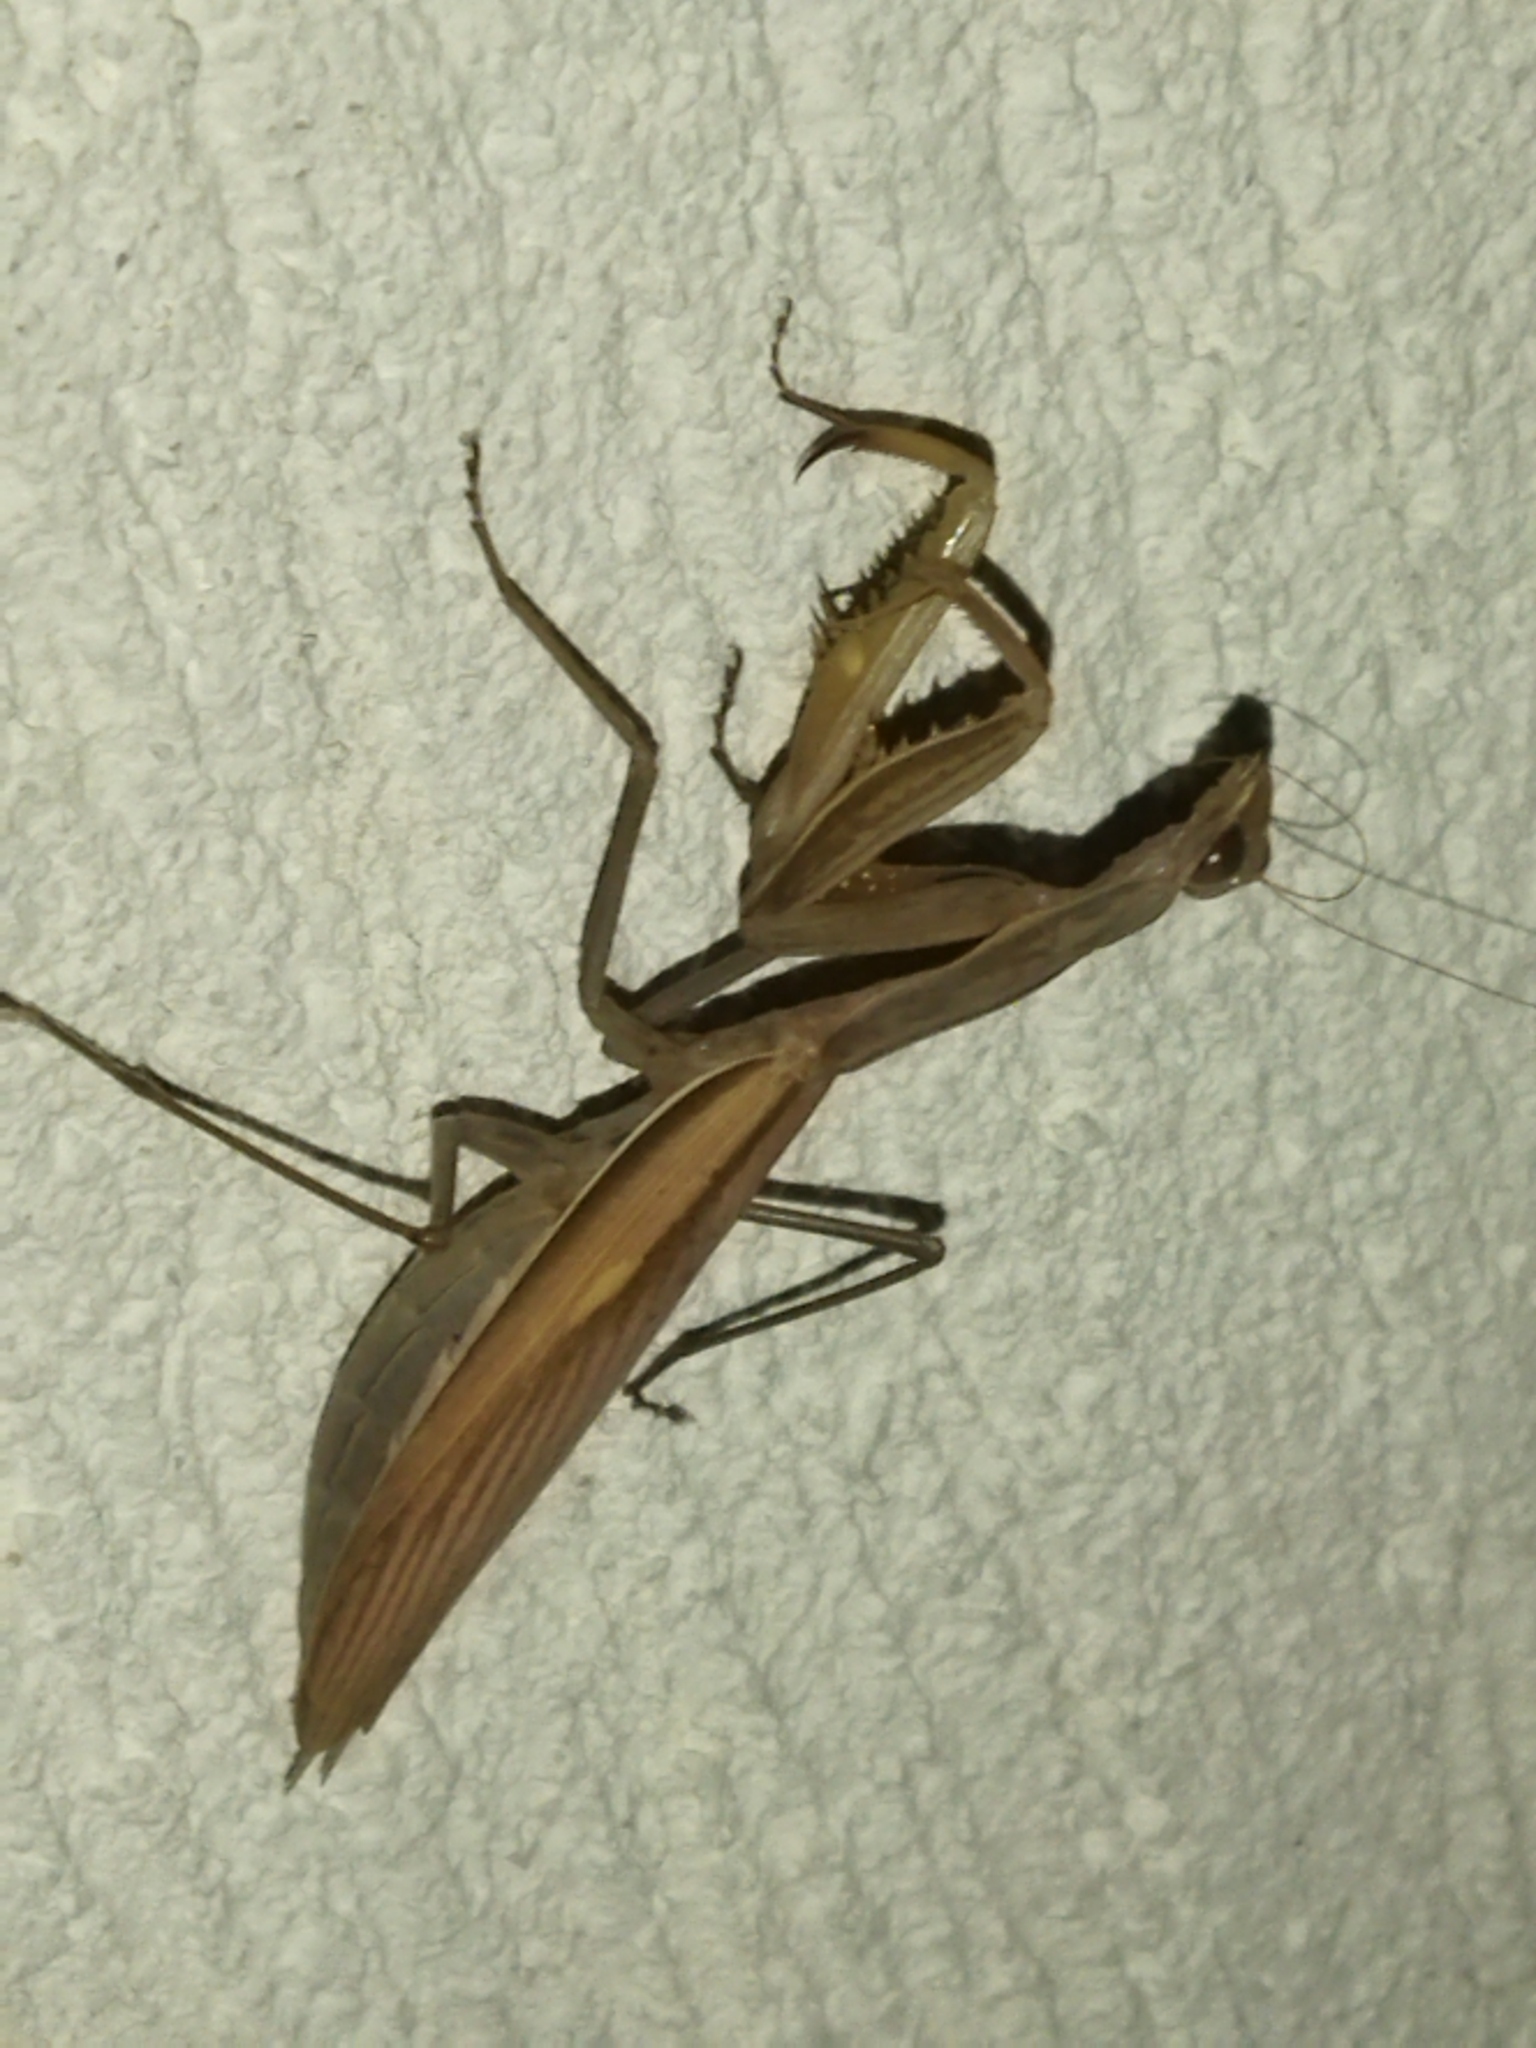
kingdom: Animalia
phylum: Arthropoda
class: Insecta
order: Mantodea
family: Mantidae
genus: Mantis
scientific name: Mantis religiosa
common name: Praying mantis
